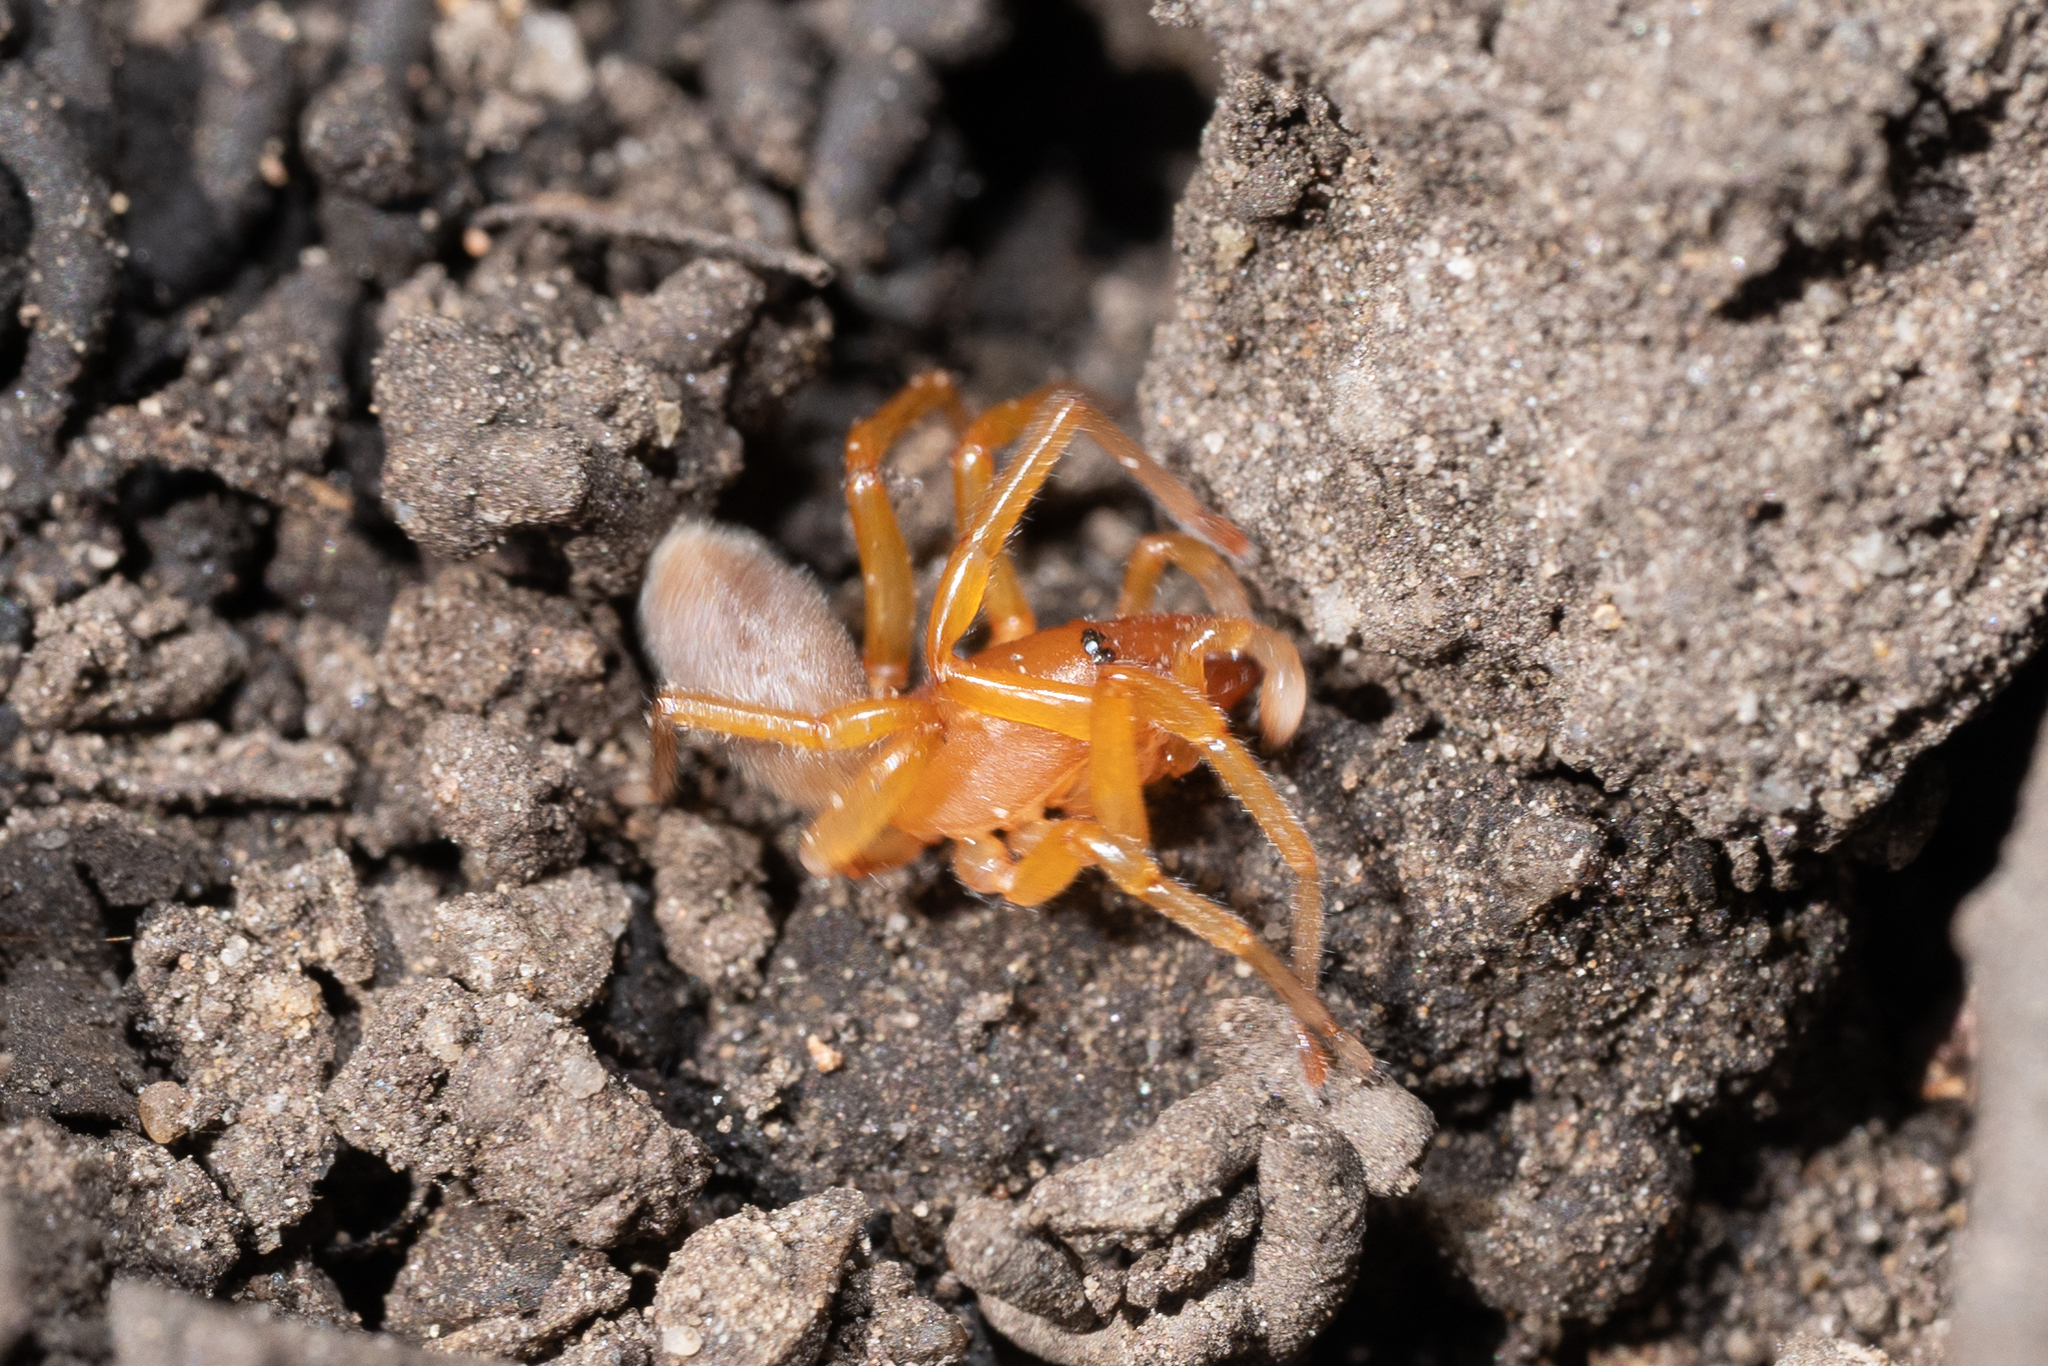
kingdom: Animalia
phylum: Arthropoda
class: Arachnida
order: Araneae
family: Dysderidae
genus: Dysdera
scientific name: Dysdera crocata
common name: Woodlouse spider
